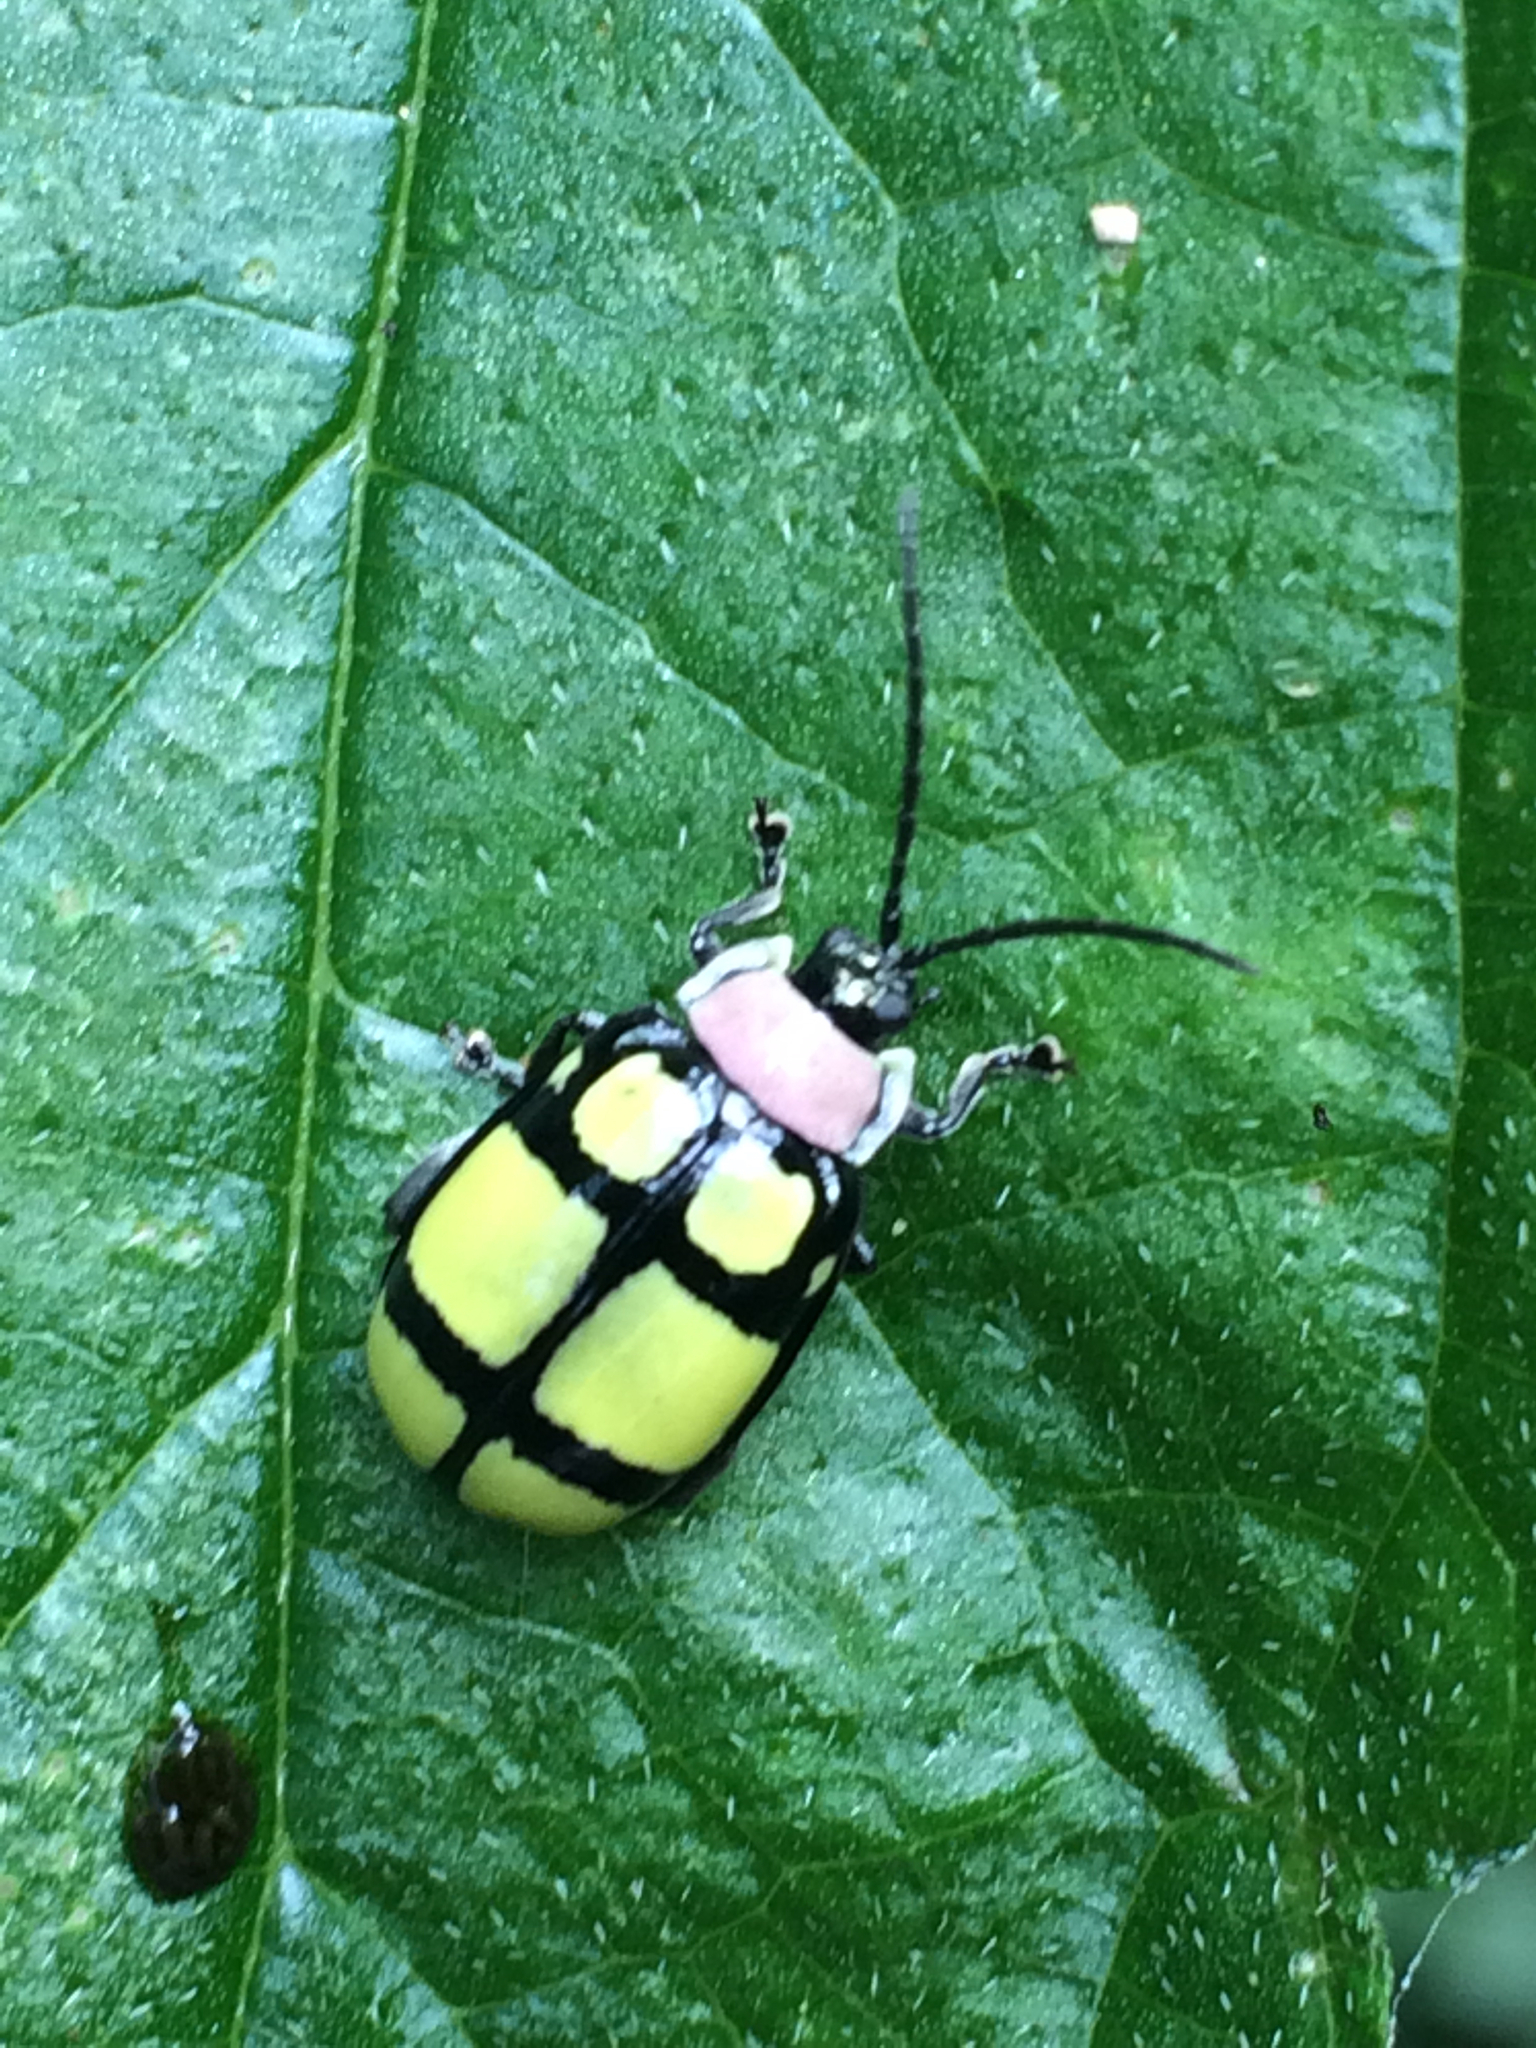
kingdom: Animalia
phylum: Arthropoda
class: Insecta
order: Coleoptera
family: Chrysomelidae
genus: Alagoasa
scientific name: Alagoasa
